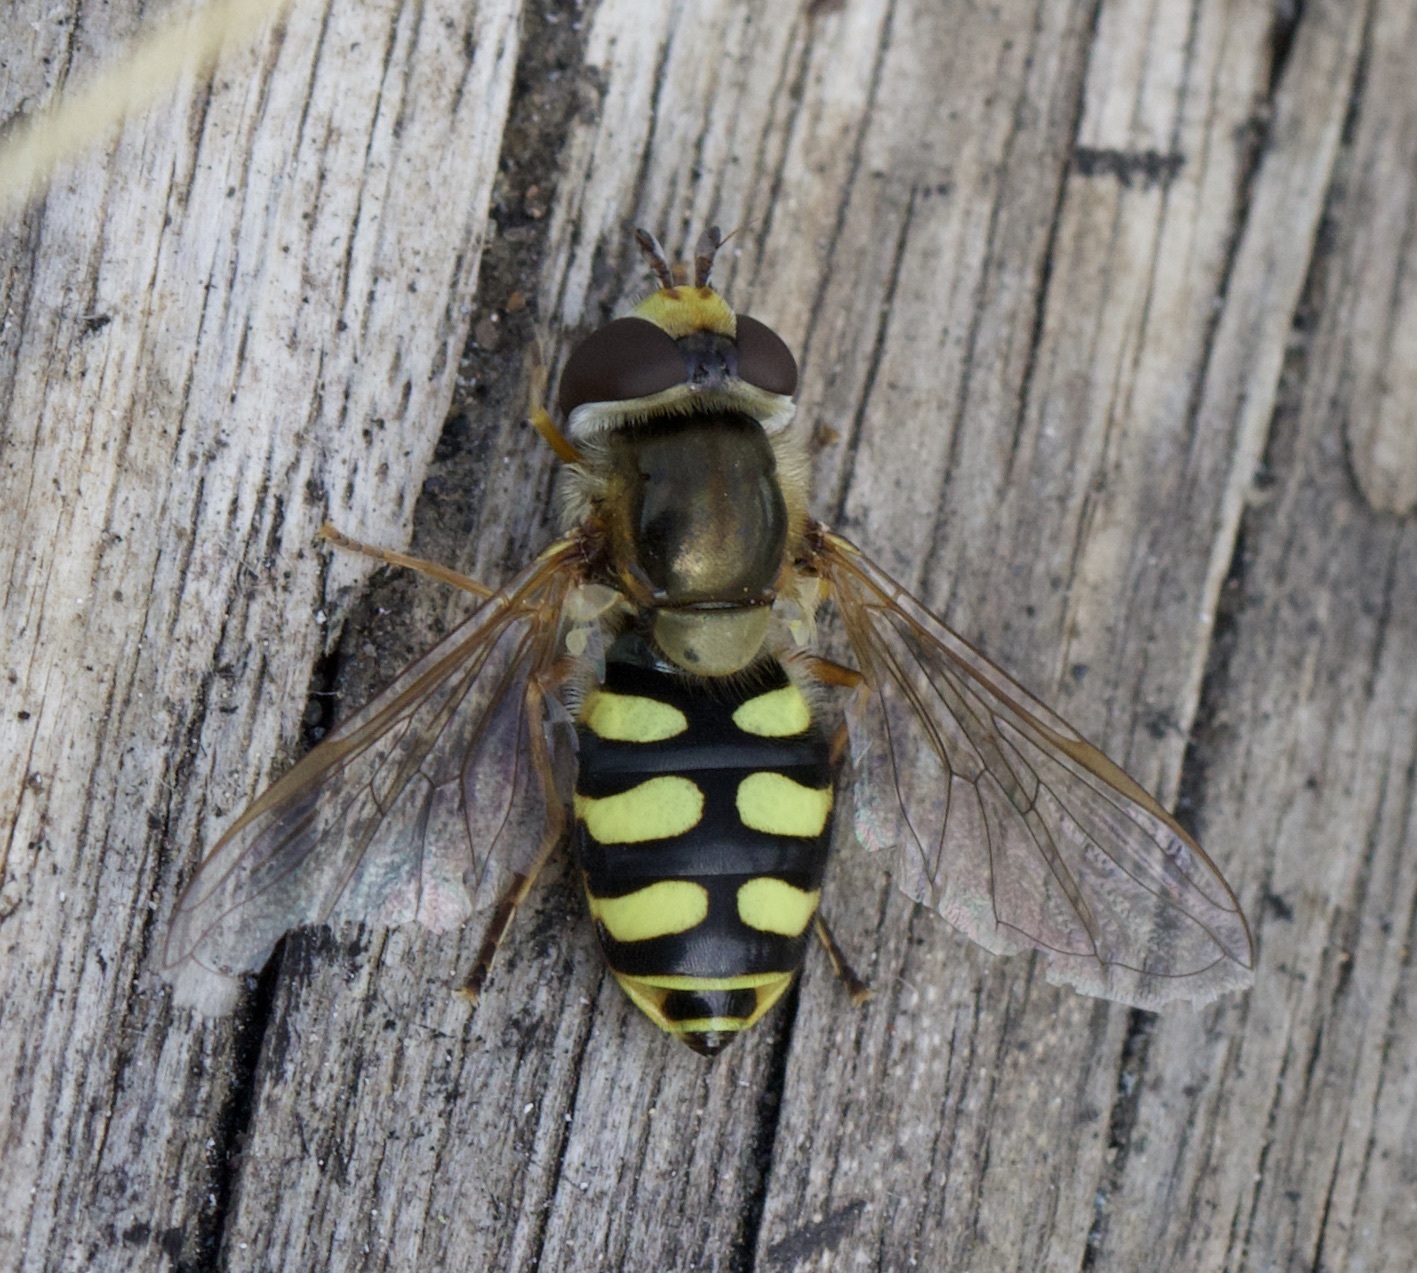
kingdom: Animalia
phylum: Arthropoda
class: Insecta
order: Diptera
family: Syrphidae
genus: Eupeodes
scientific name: Eupeodes corollae
